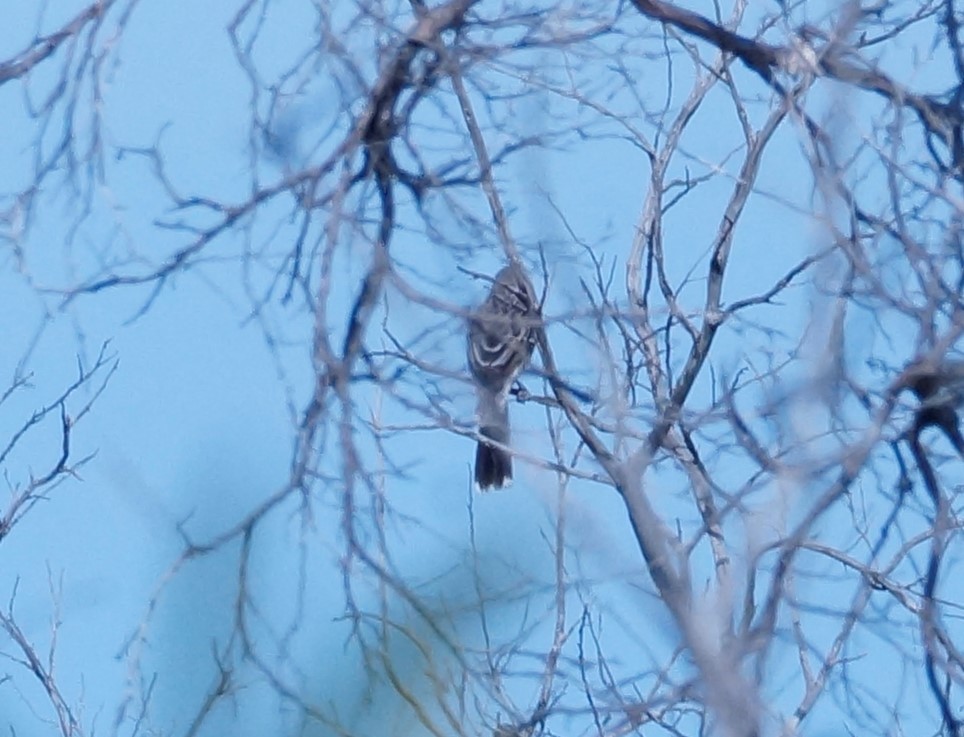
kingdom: Animalia
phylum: Chordata
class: Aves
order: Passeriformes
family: Meliphagidae
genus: Acanthagenys
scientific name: Acanthagenys rufogularis
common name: Spiny-cheeked honeyeater
